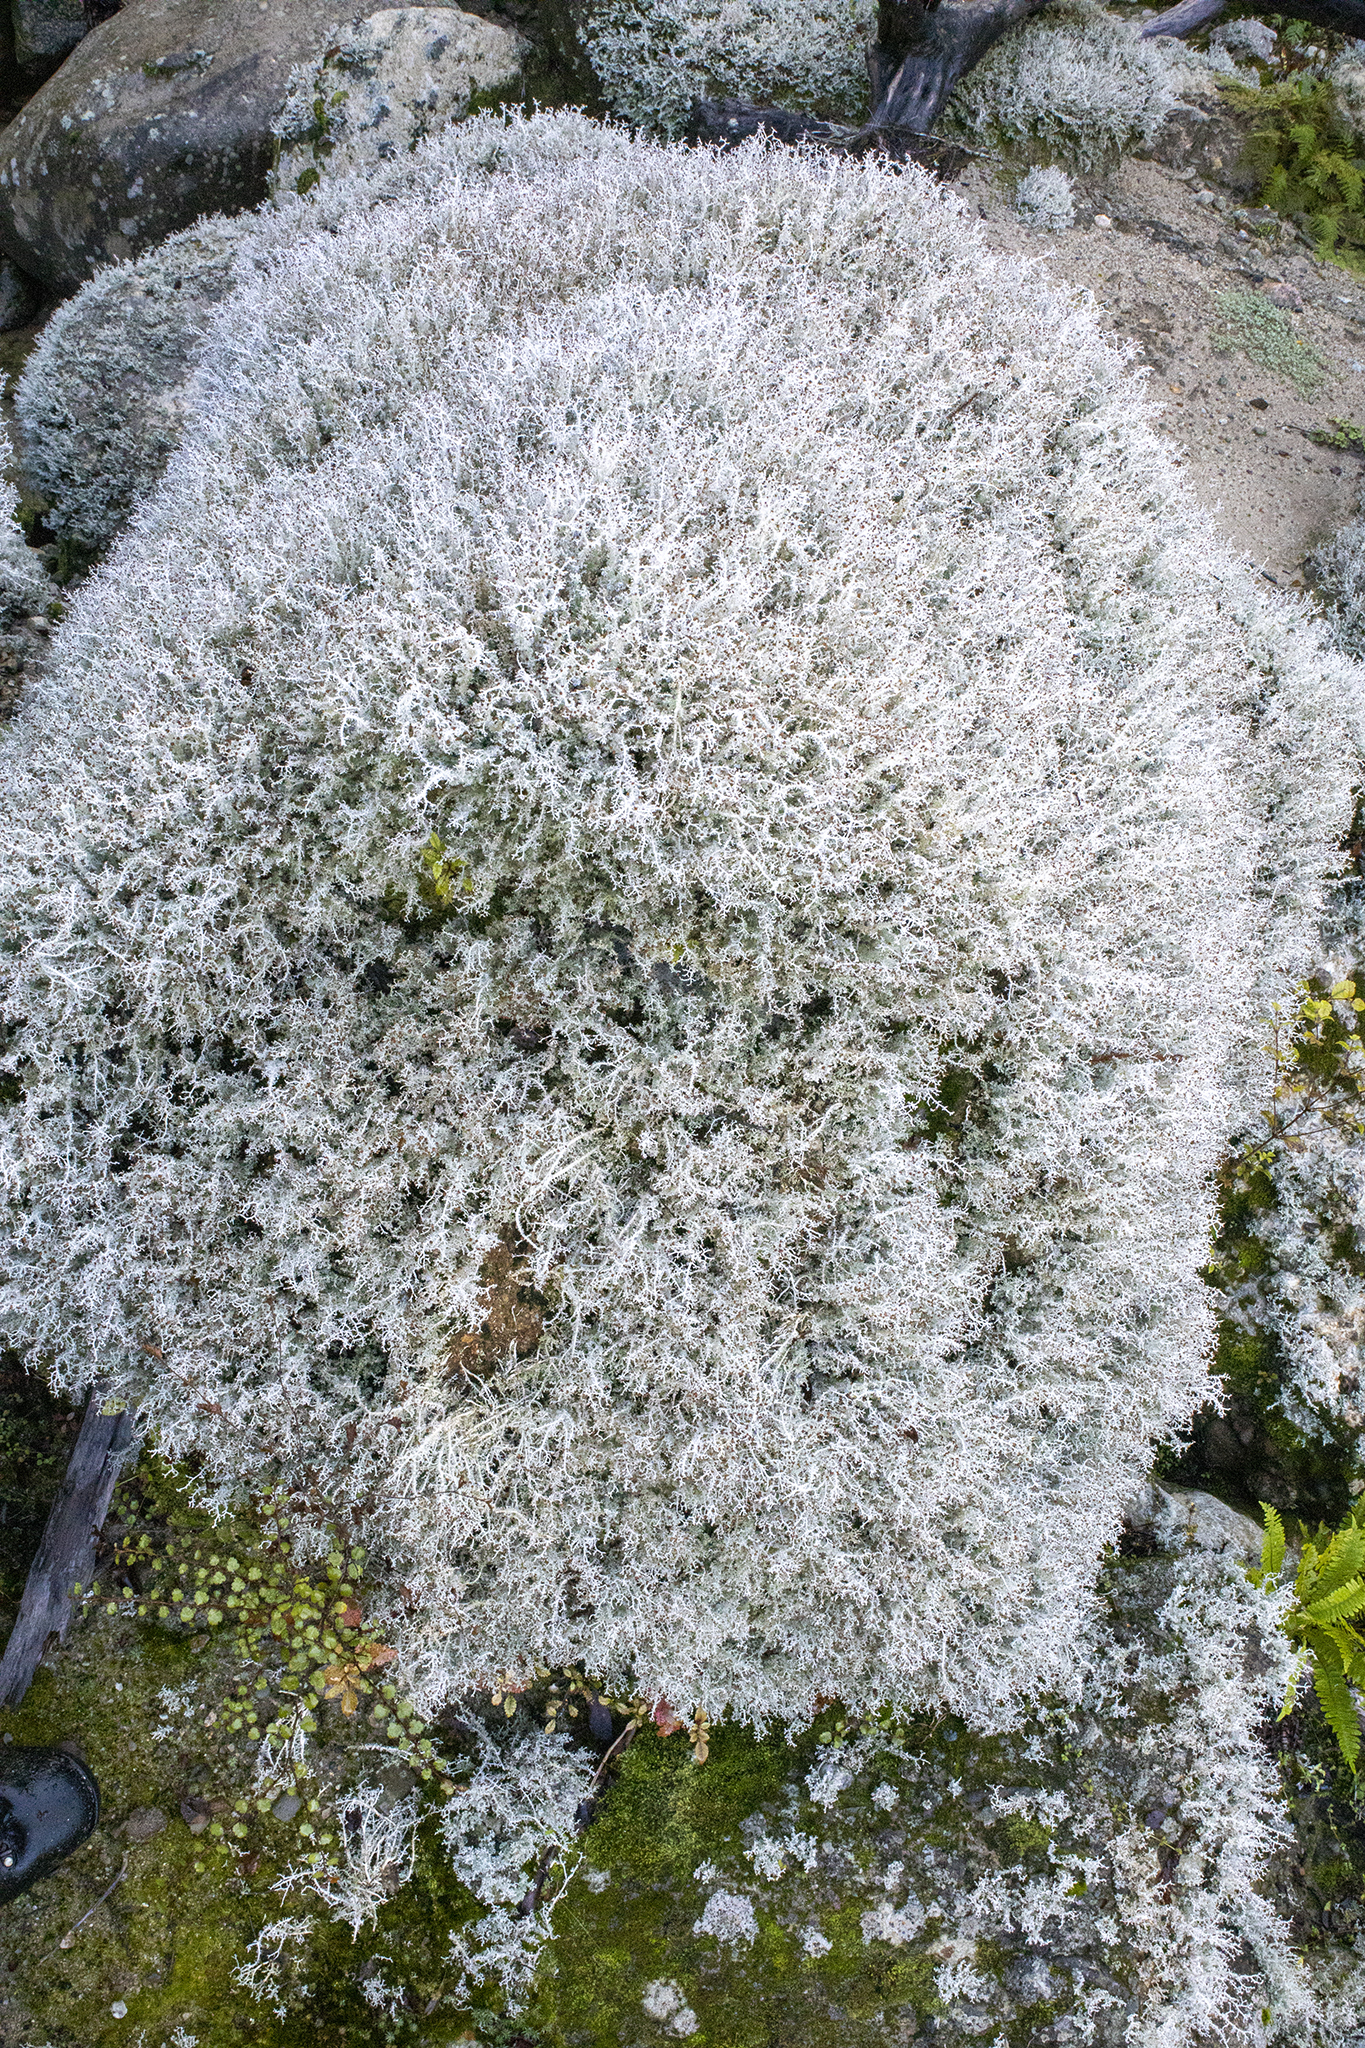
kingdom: Fungi
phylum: Ascomycota
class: Lecanoromycetes
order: Lecanorales
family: Stereocaulaceae
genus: Stereocaulon
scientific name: Stereocaulon ramulosum
